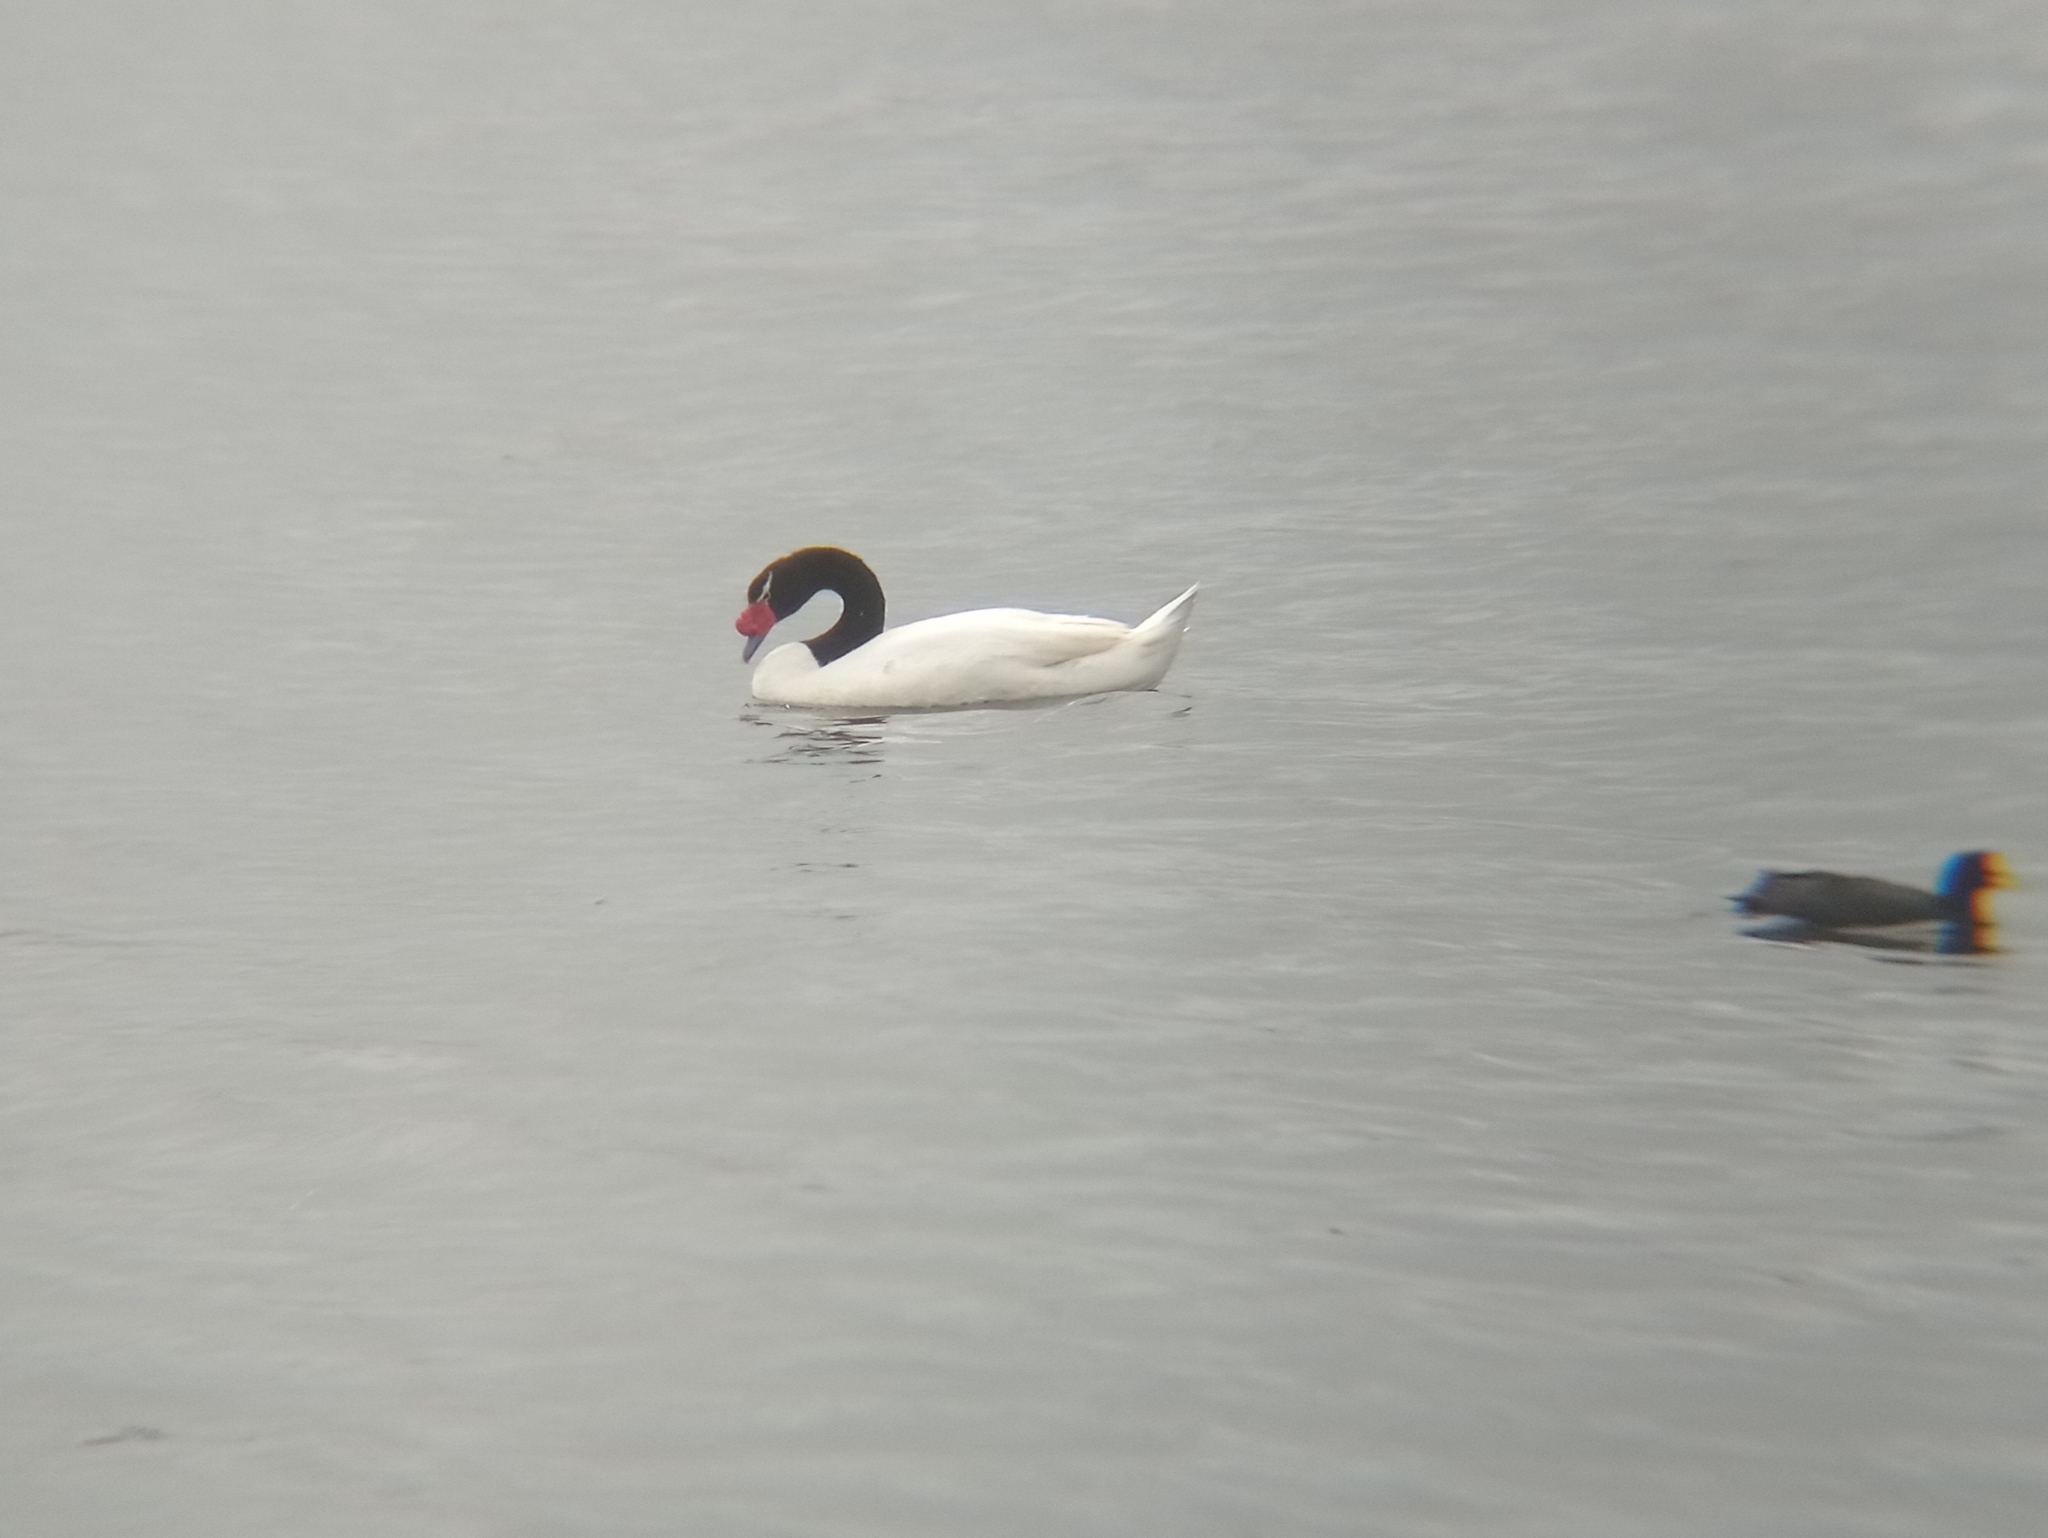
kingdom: Animalia
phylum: Chordata
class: Aves
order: Anseriformes
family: Anatidae
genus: Cygnus
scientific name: Cygnus melancoryphus
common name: Black-necked swan
